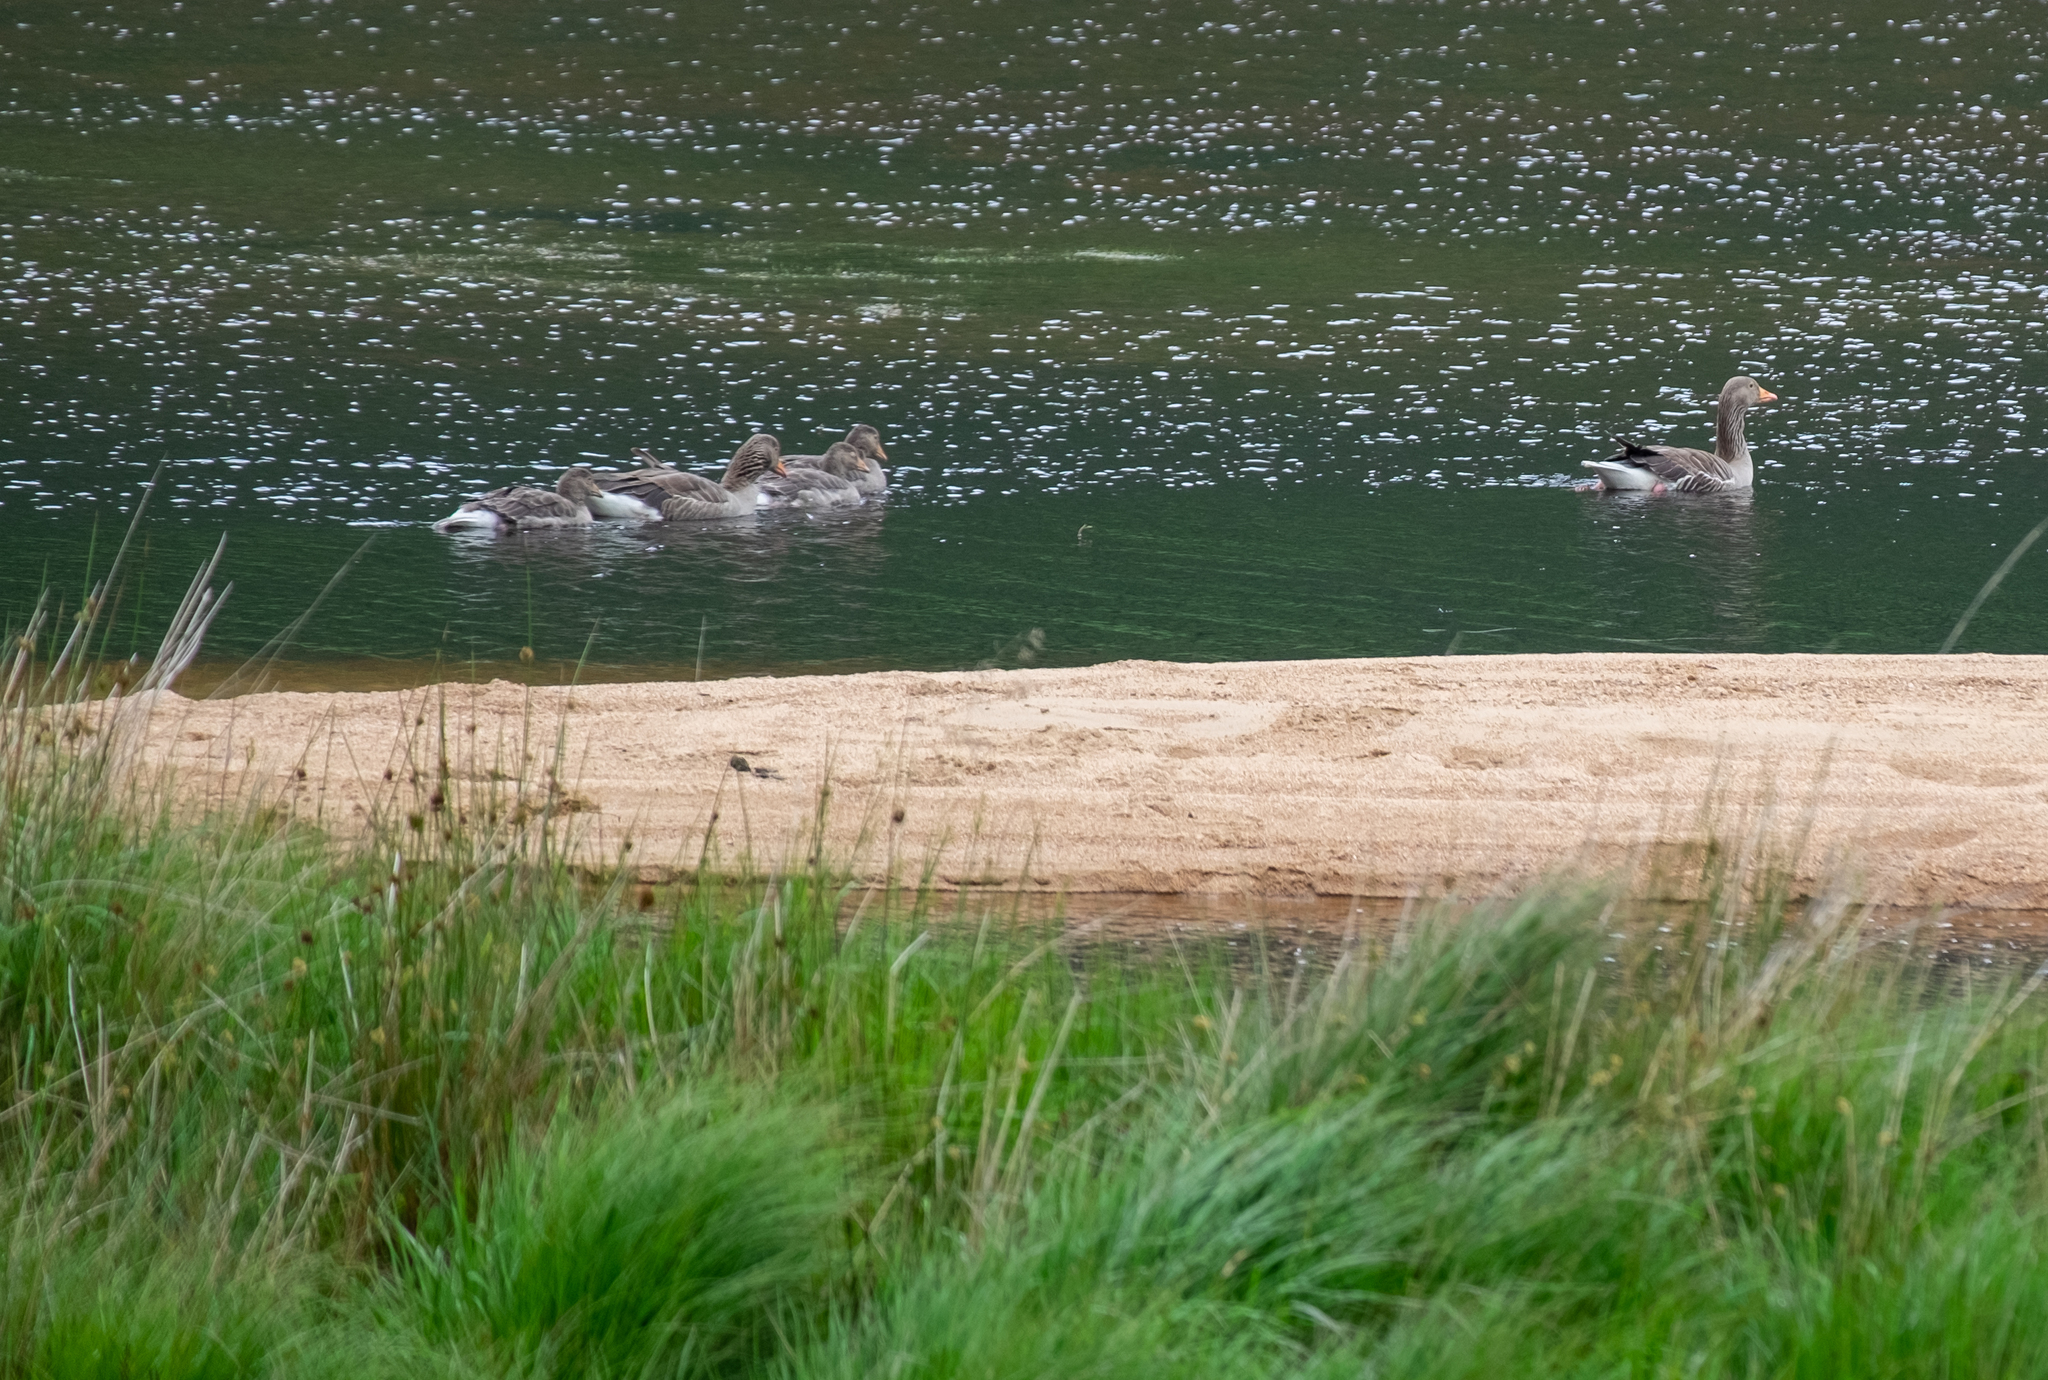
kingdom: Animalia
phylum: Chordata
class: Aves
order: Anseriformes
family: Anatidae
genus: Anser
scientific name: Anser anser
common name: Greylag goose
